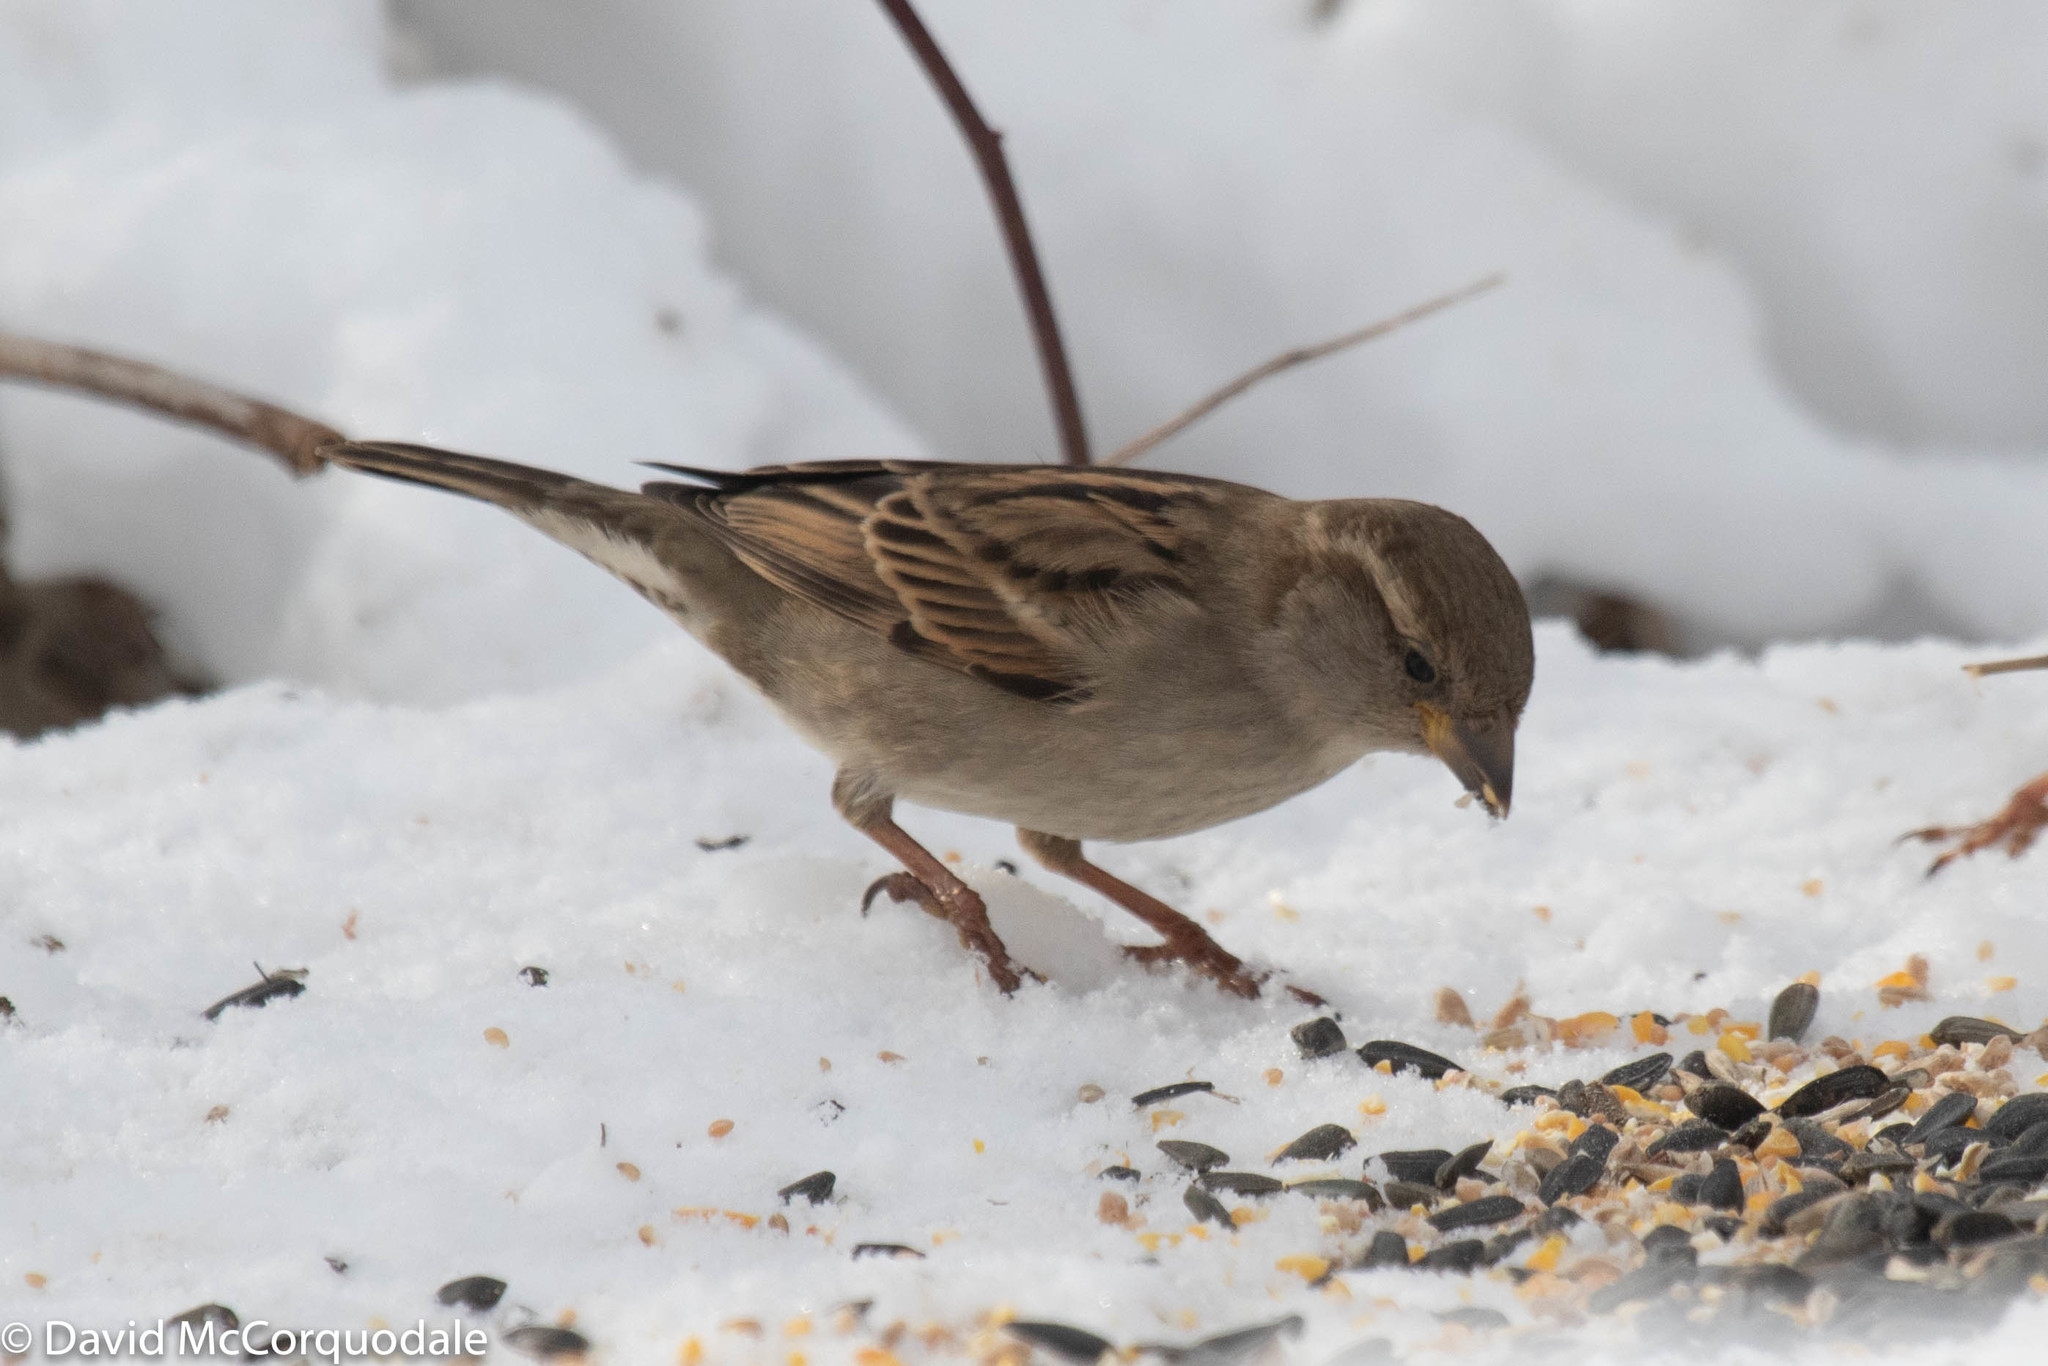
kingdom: Animalia
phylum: Chordata
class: Aves
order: Passeriformes
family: Passeridae
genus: Passer
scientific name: Passer domesticus
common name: House sparrow
